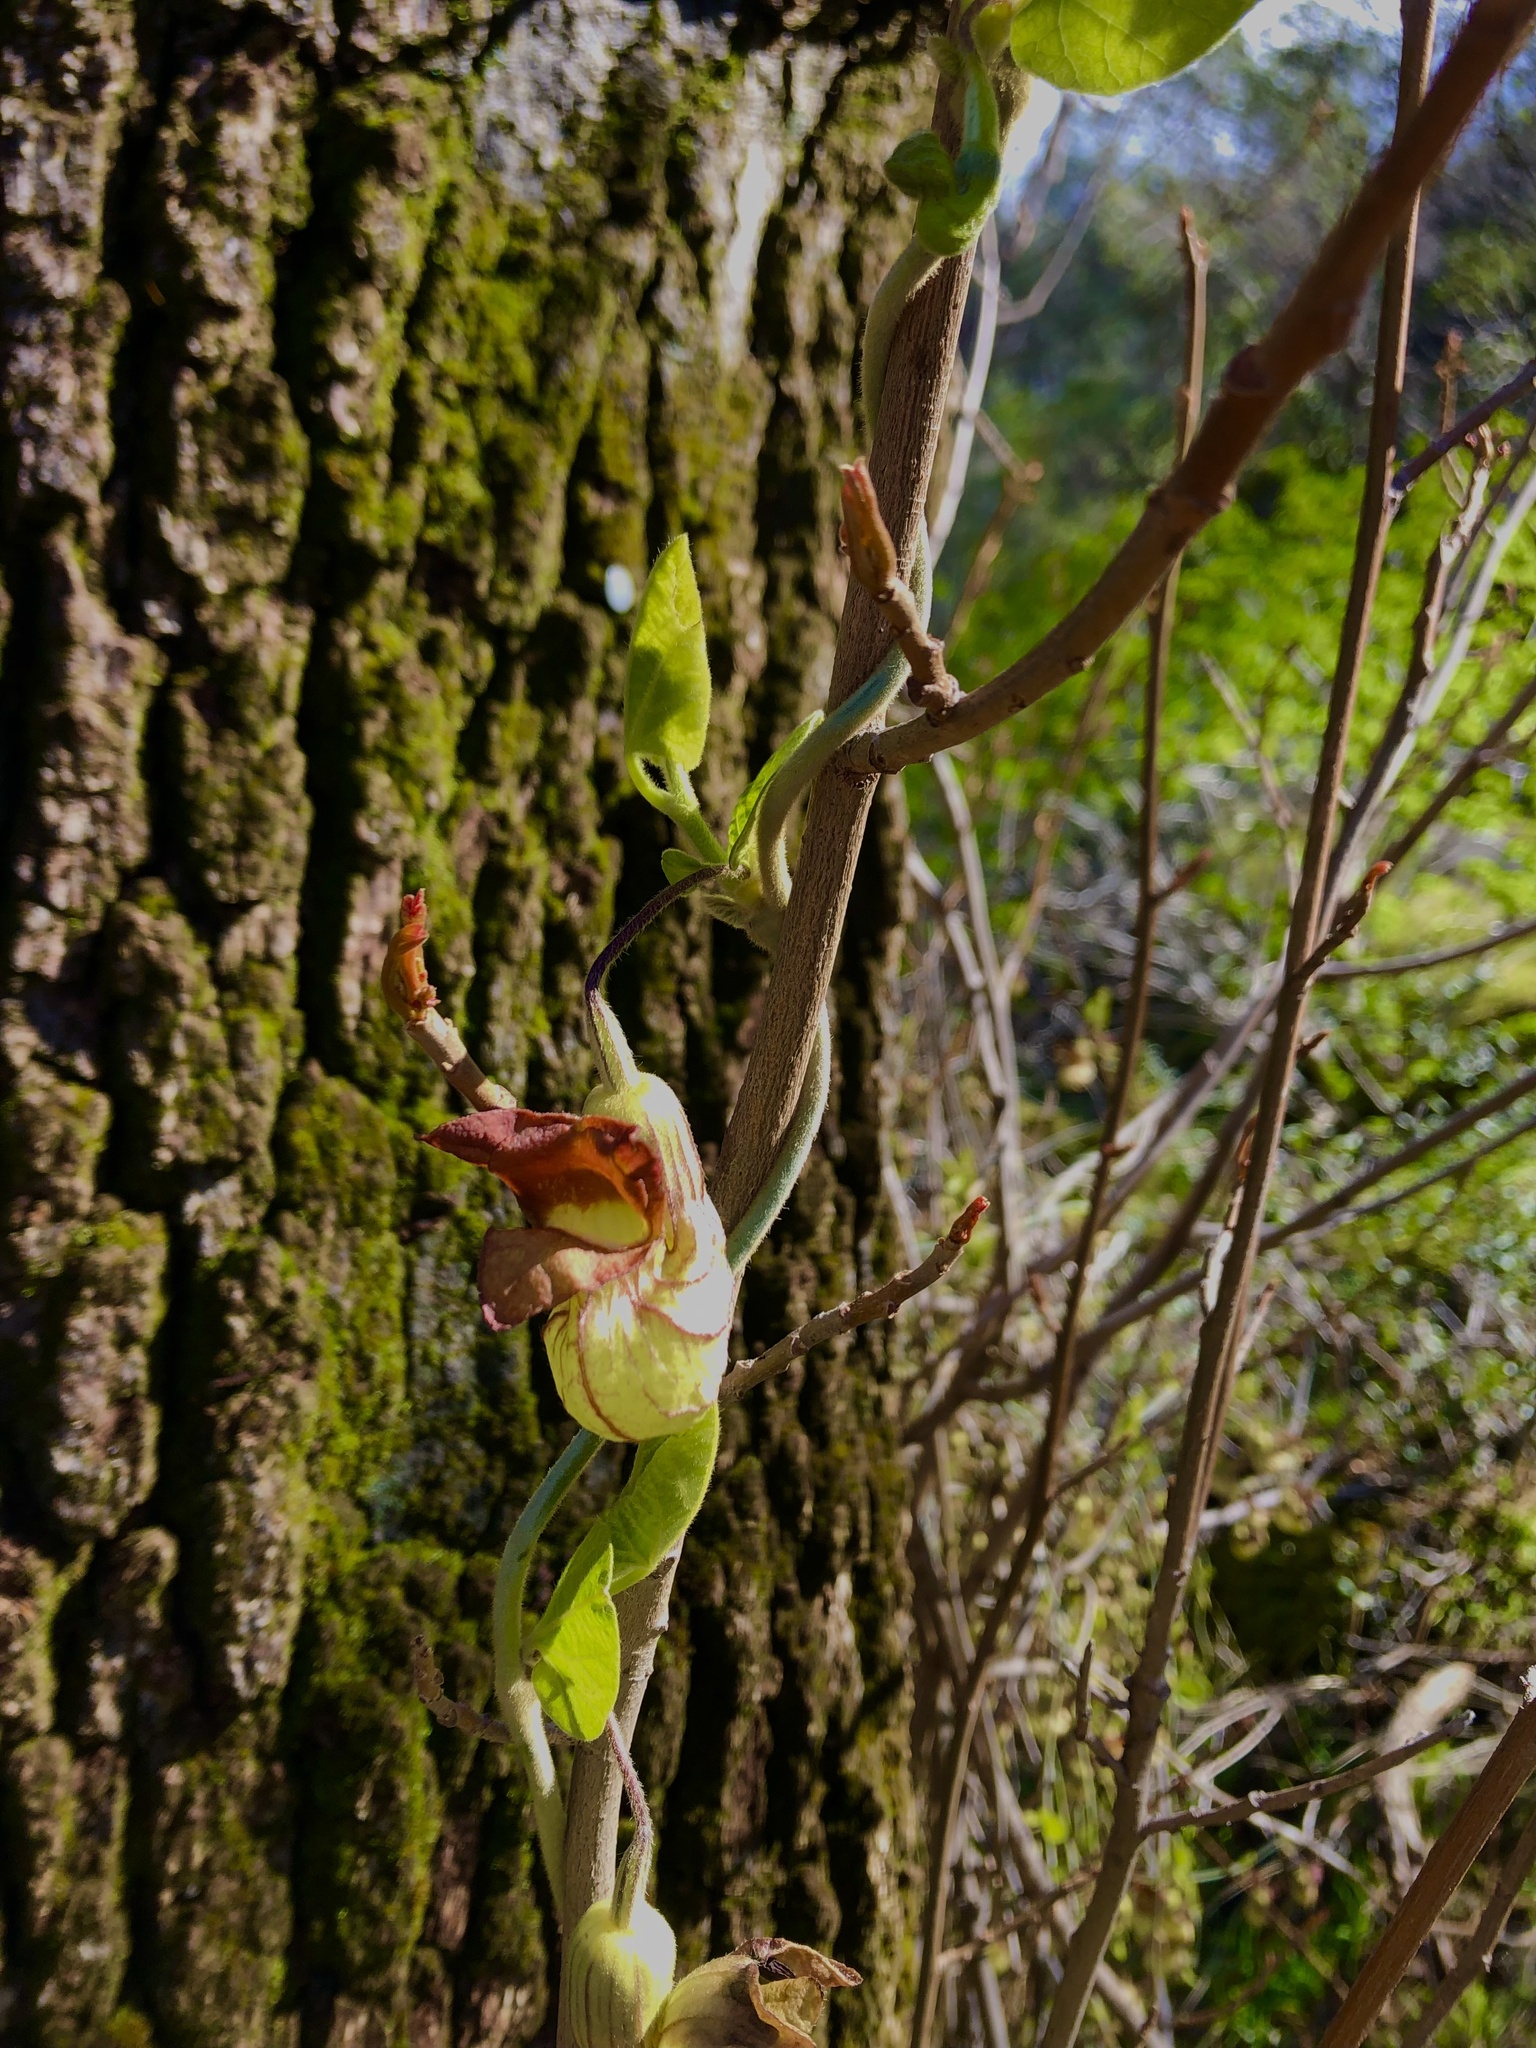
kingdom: Plantae
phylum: Tracheophyta
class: Magnoliopsida
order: Piperales
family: Aristolochiaceae
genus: Isotrema
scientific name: Isotrema californicum
